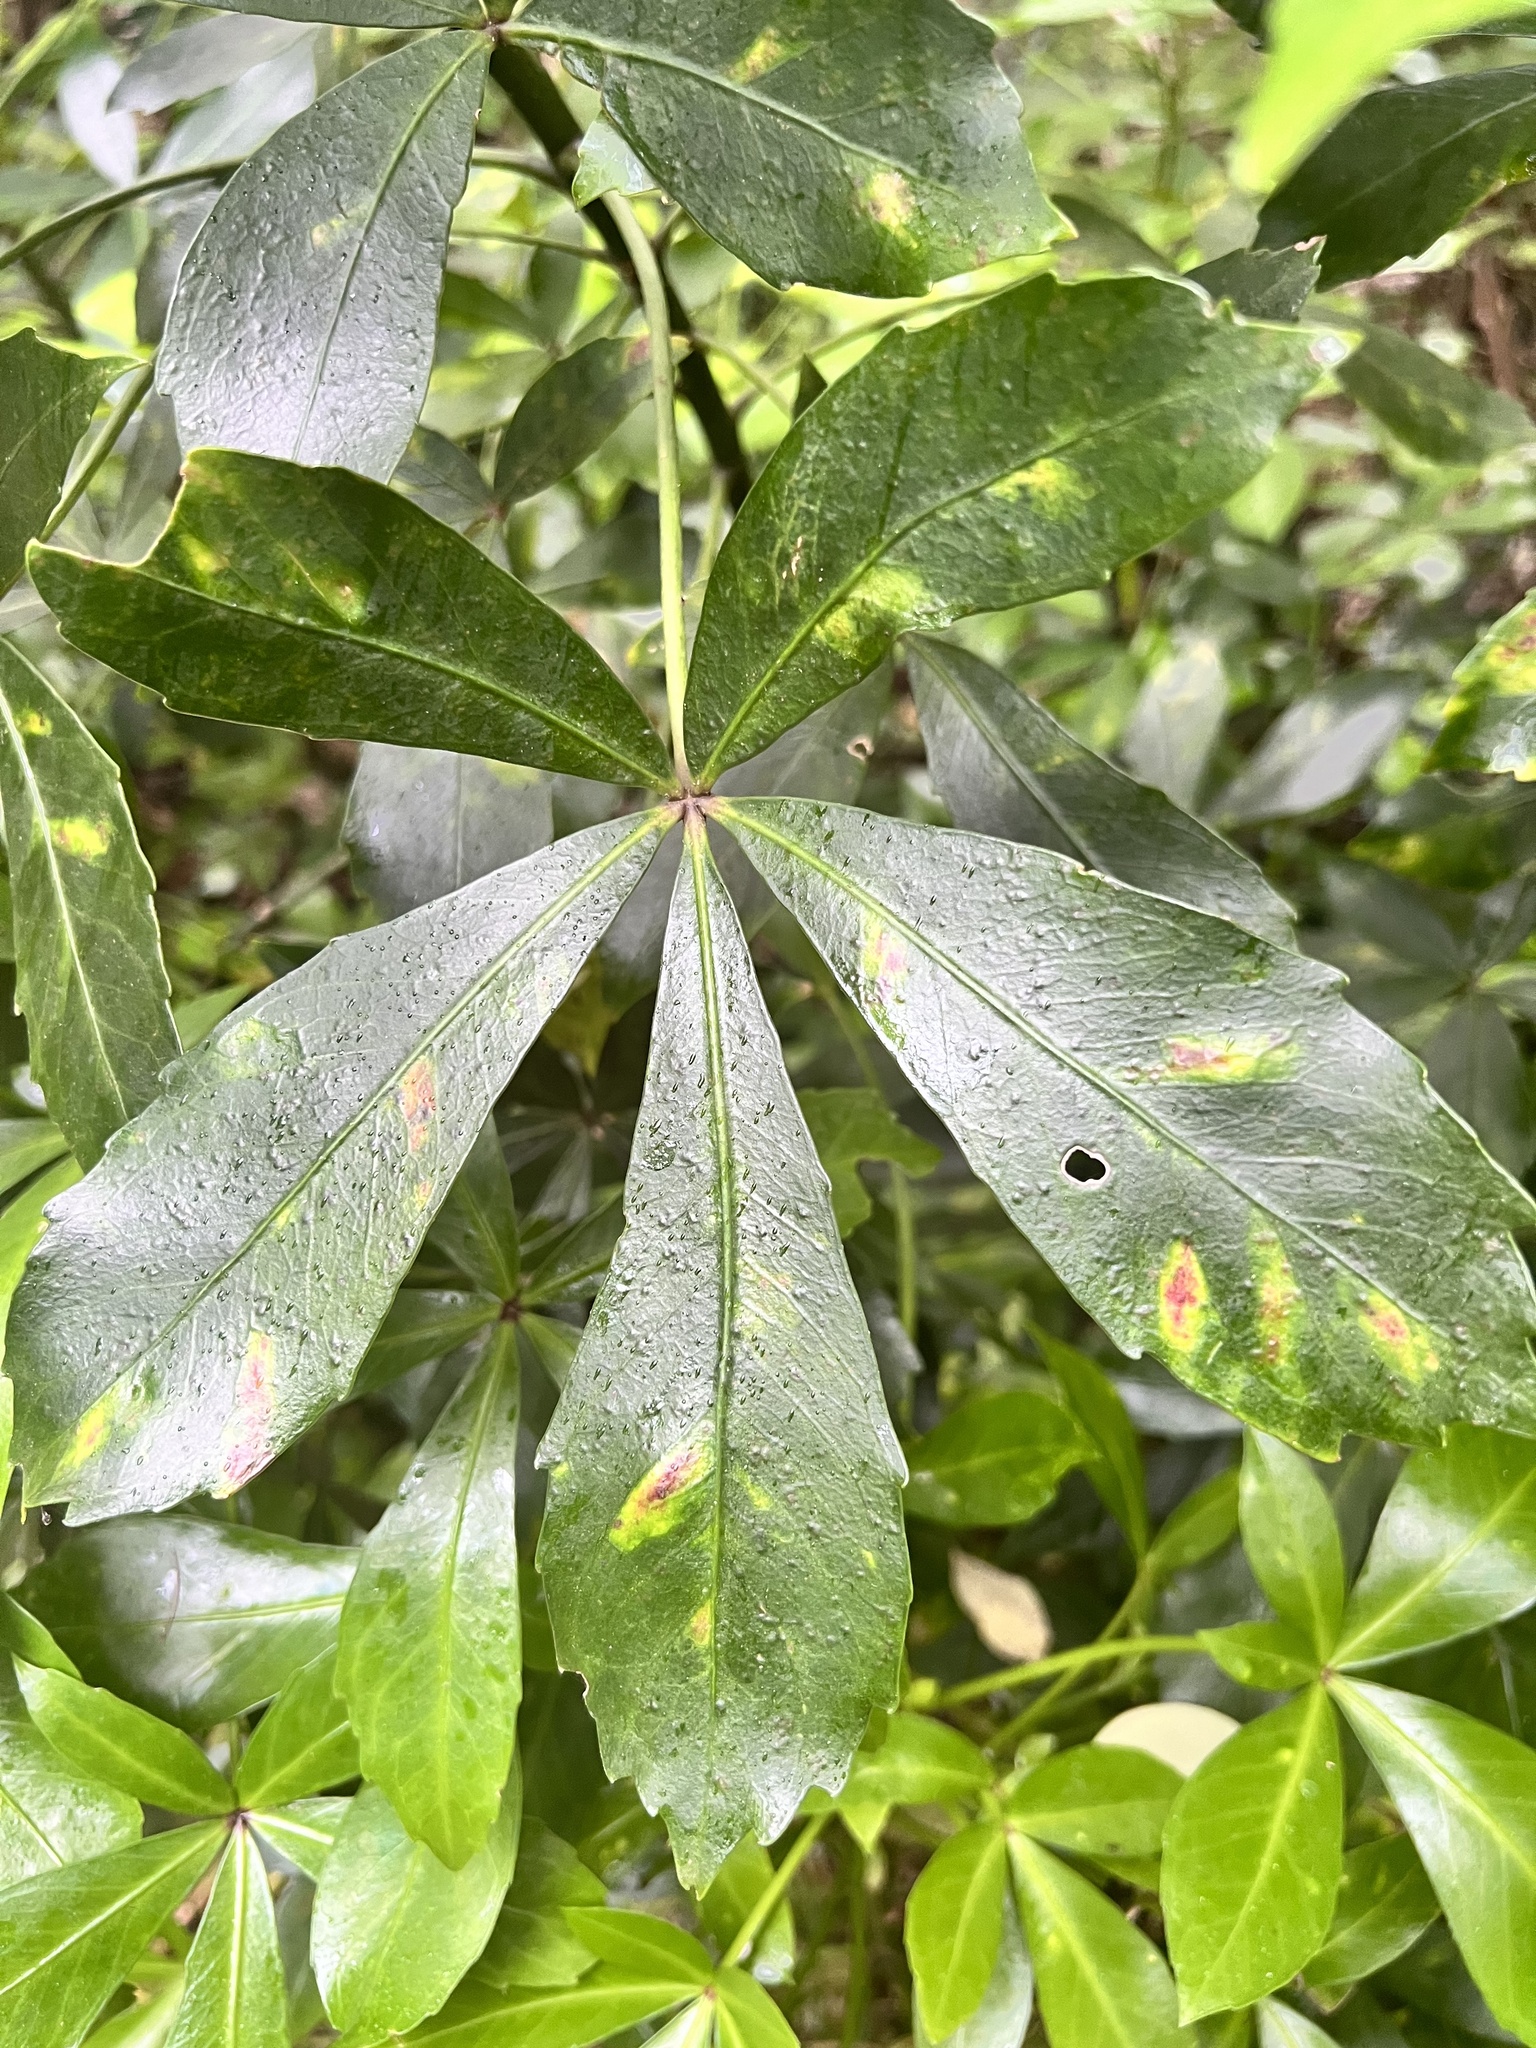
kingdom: Plantae
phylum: Tracheophyta
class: Magnoliopsida
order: Apiales
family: Araliaceae
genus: Pseudopanax
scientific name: Pseudopanax lessonii
